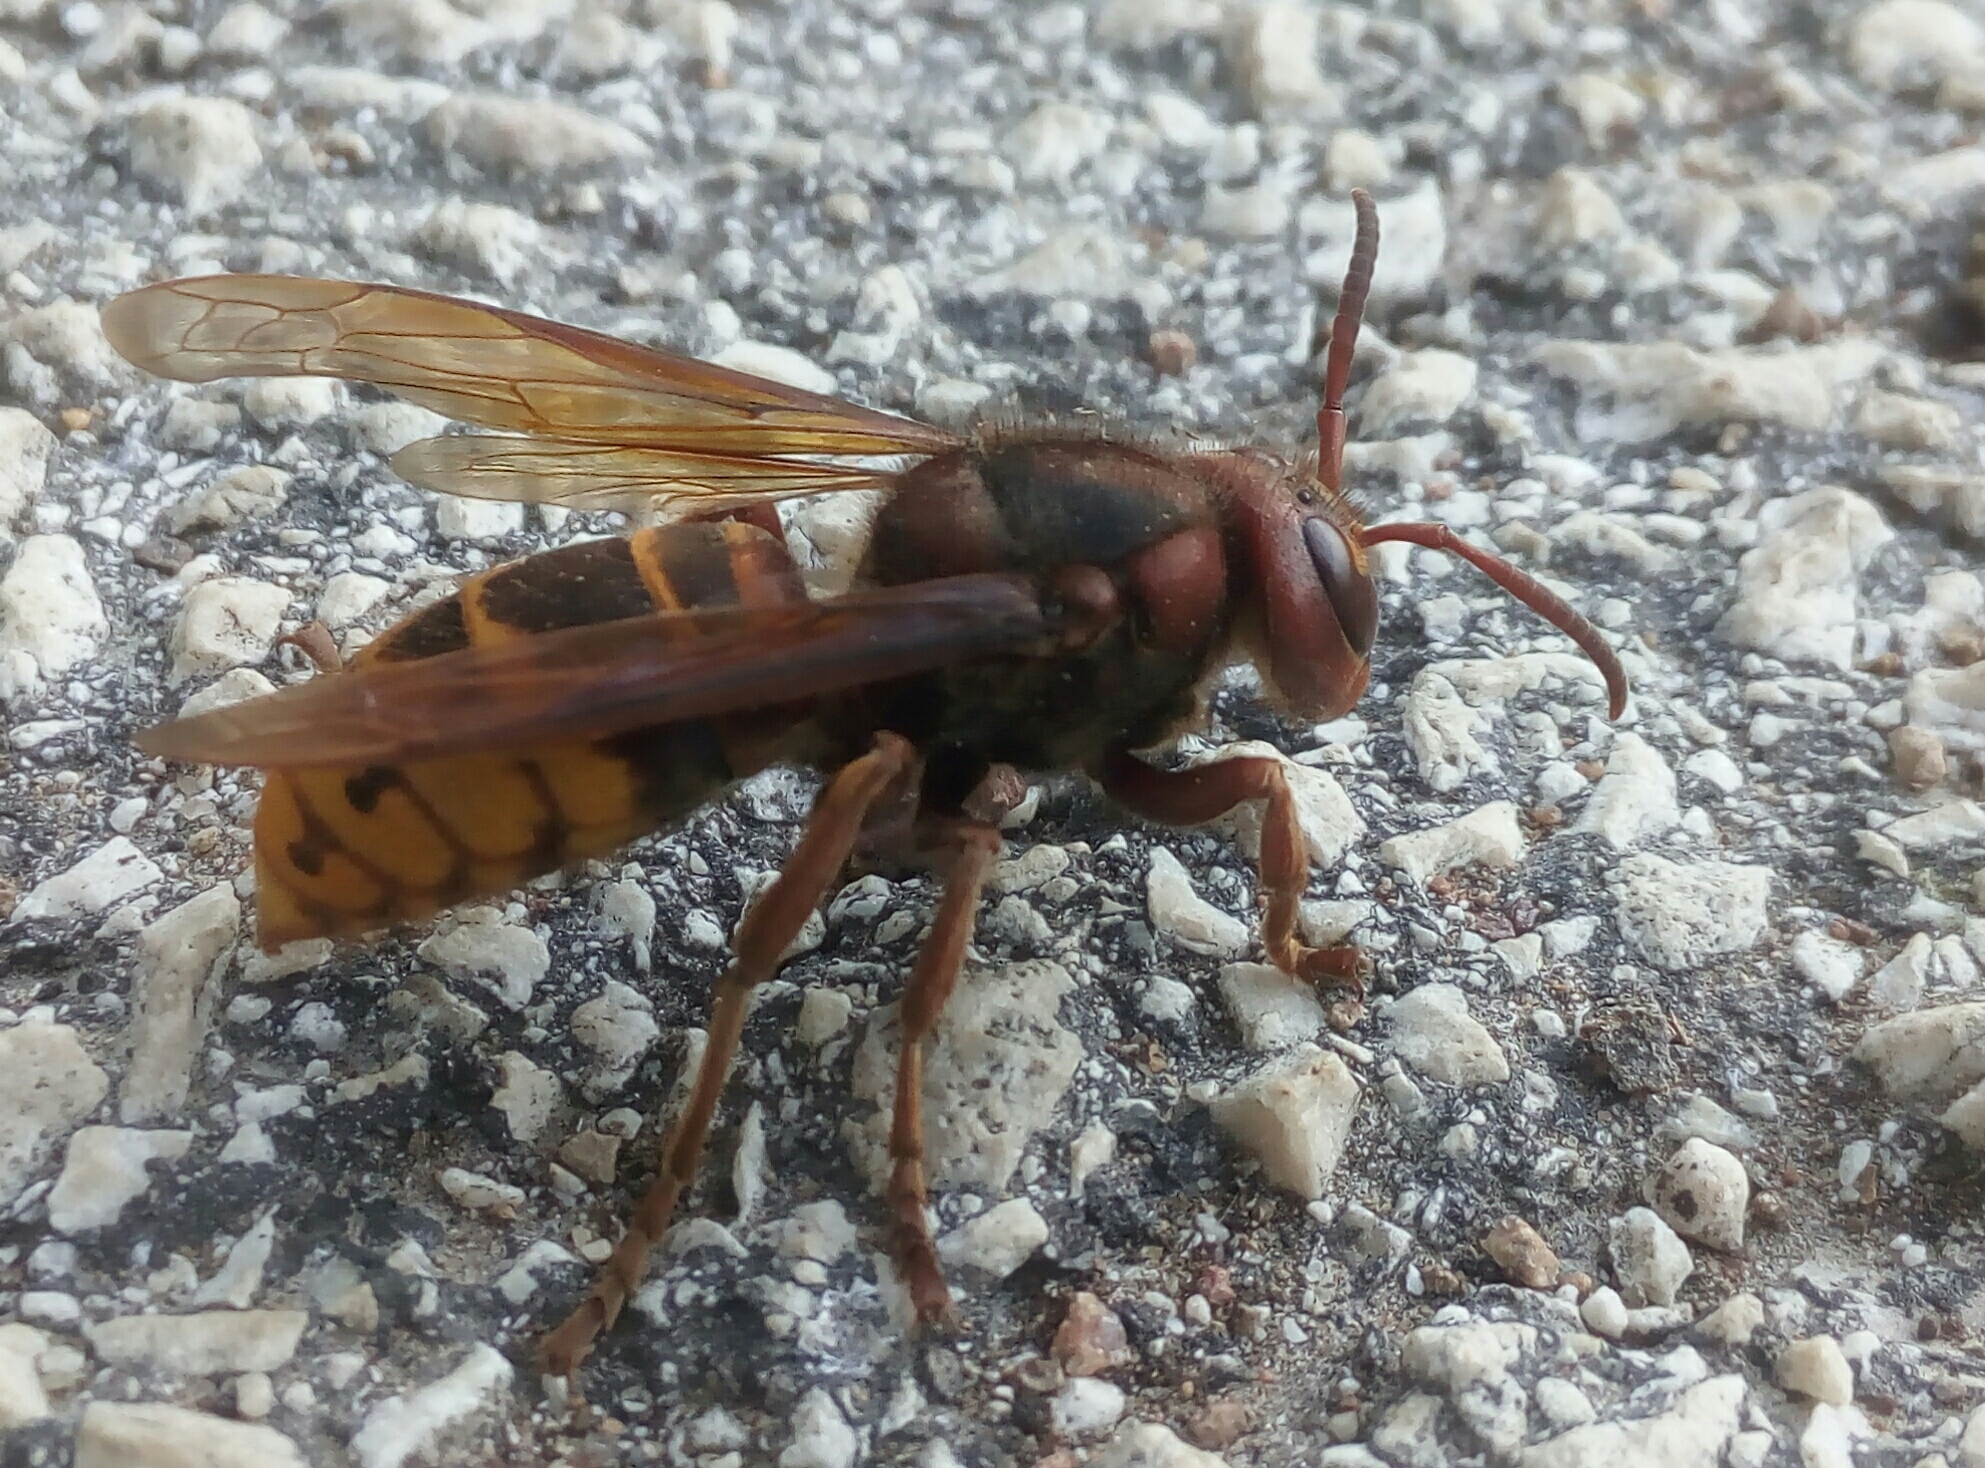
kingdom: Animalia
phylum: Arthropoda
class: Insecta
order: Hymenoptera
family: Vespidae
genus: Vespa
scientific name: Vespa crabro
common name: Hornet
